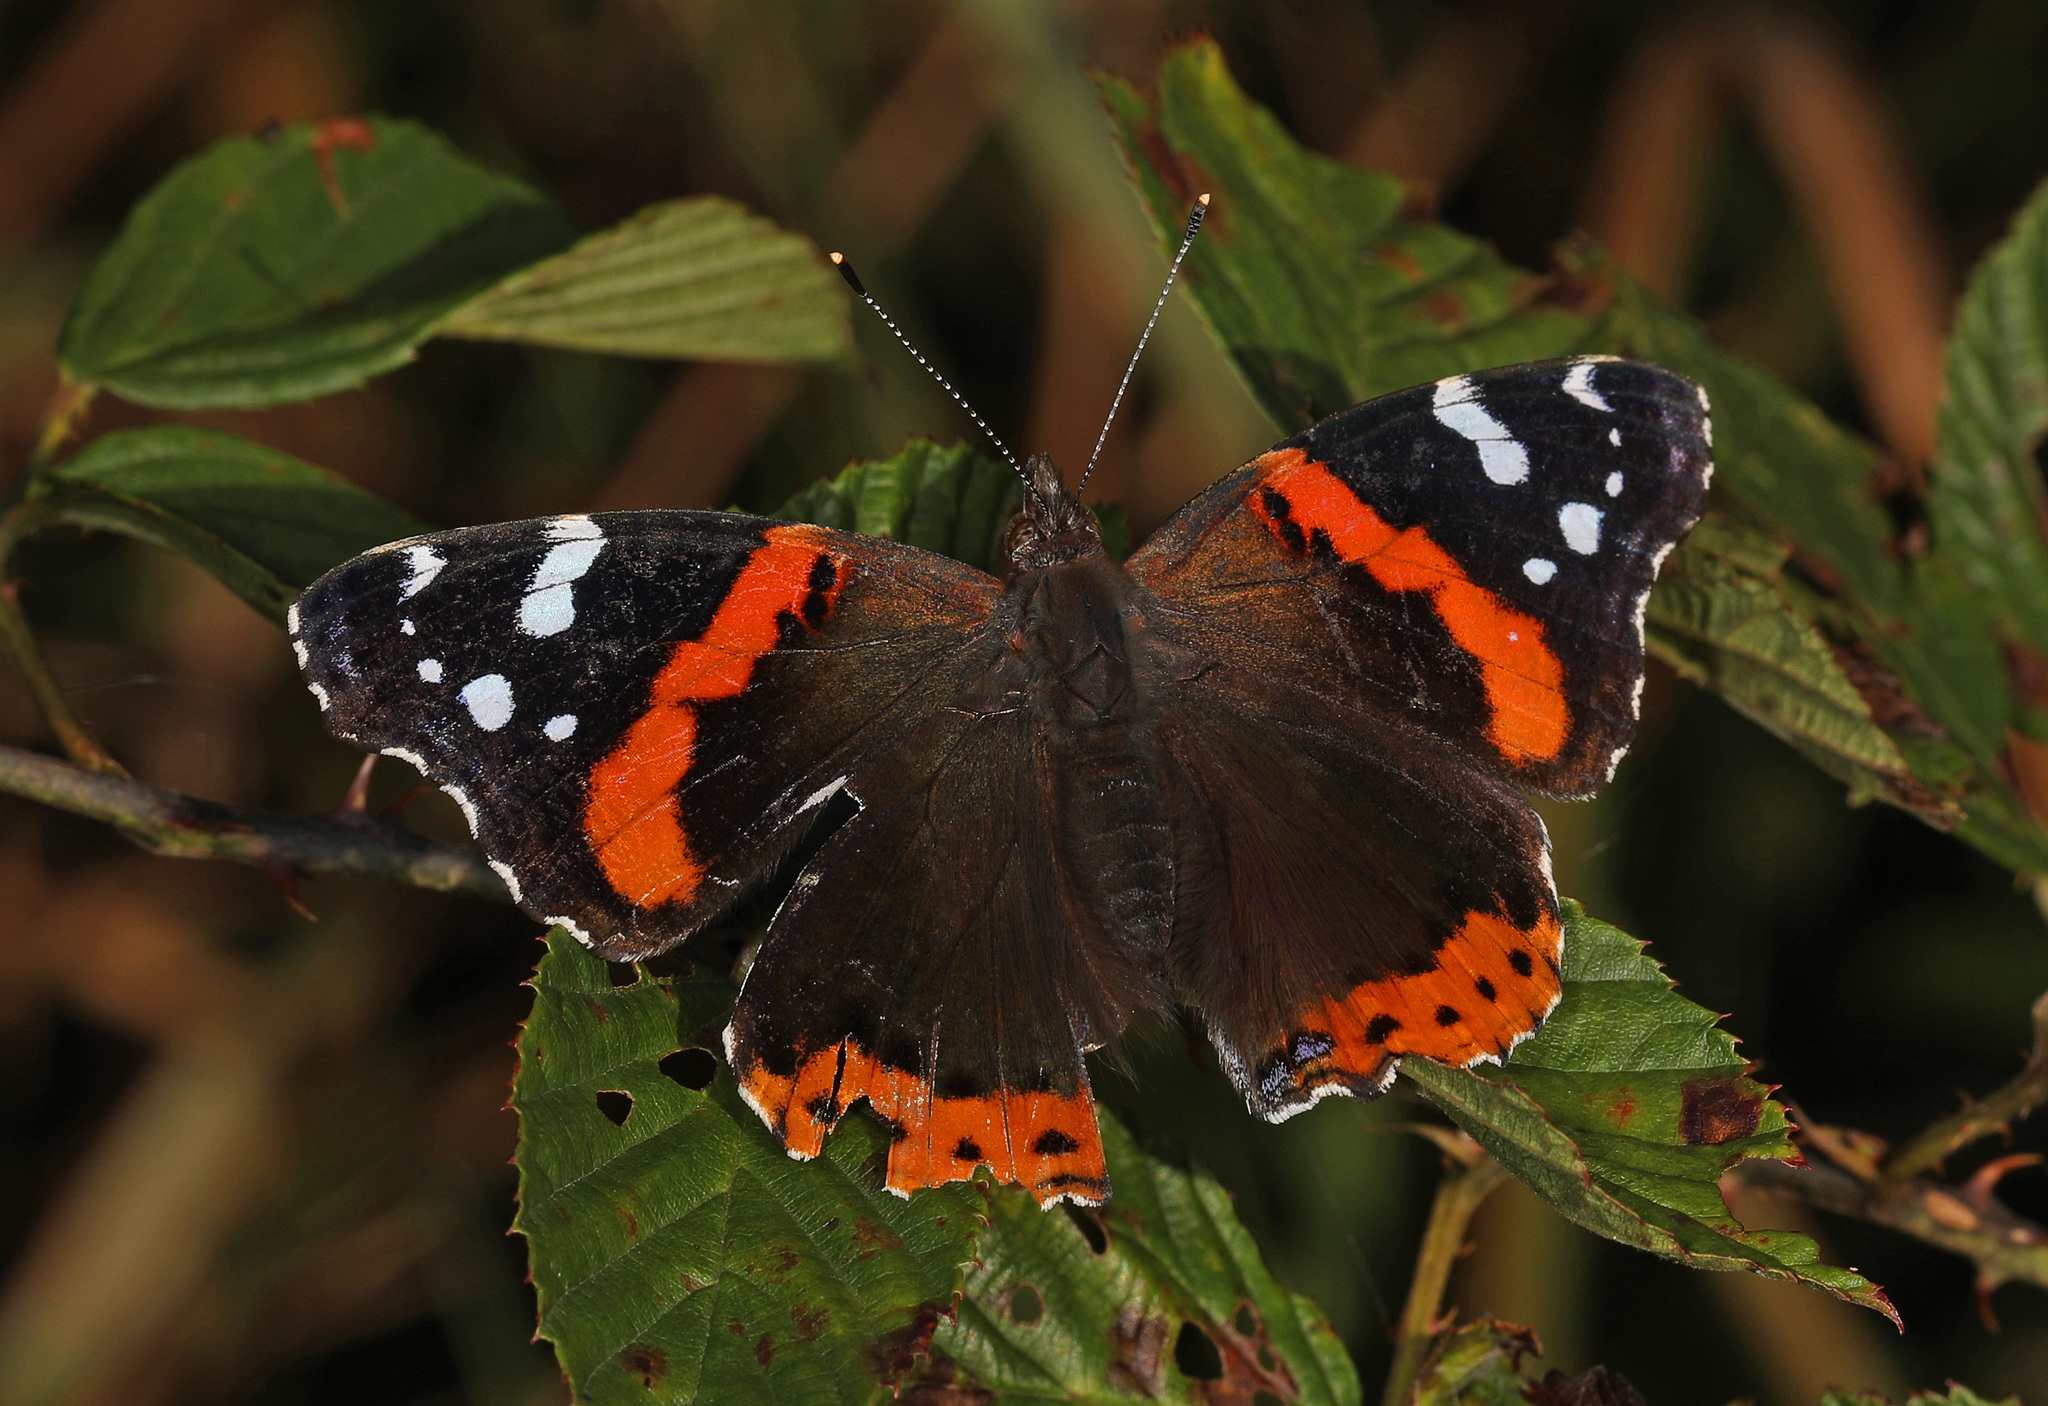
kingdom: Animalia
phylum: Arthropoda
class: Insecta
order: Lepidoptera
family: Nymphalidae
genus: Vanessa
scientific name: Vanessa atalanta
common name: Red admiral
